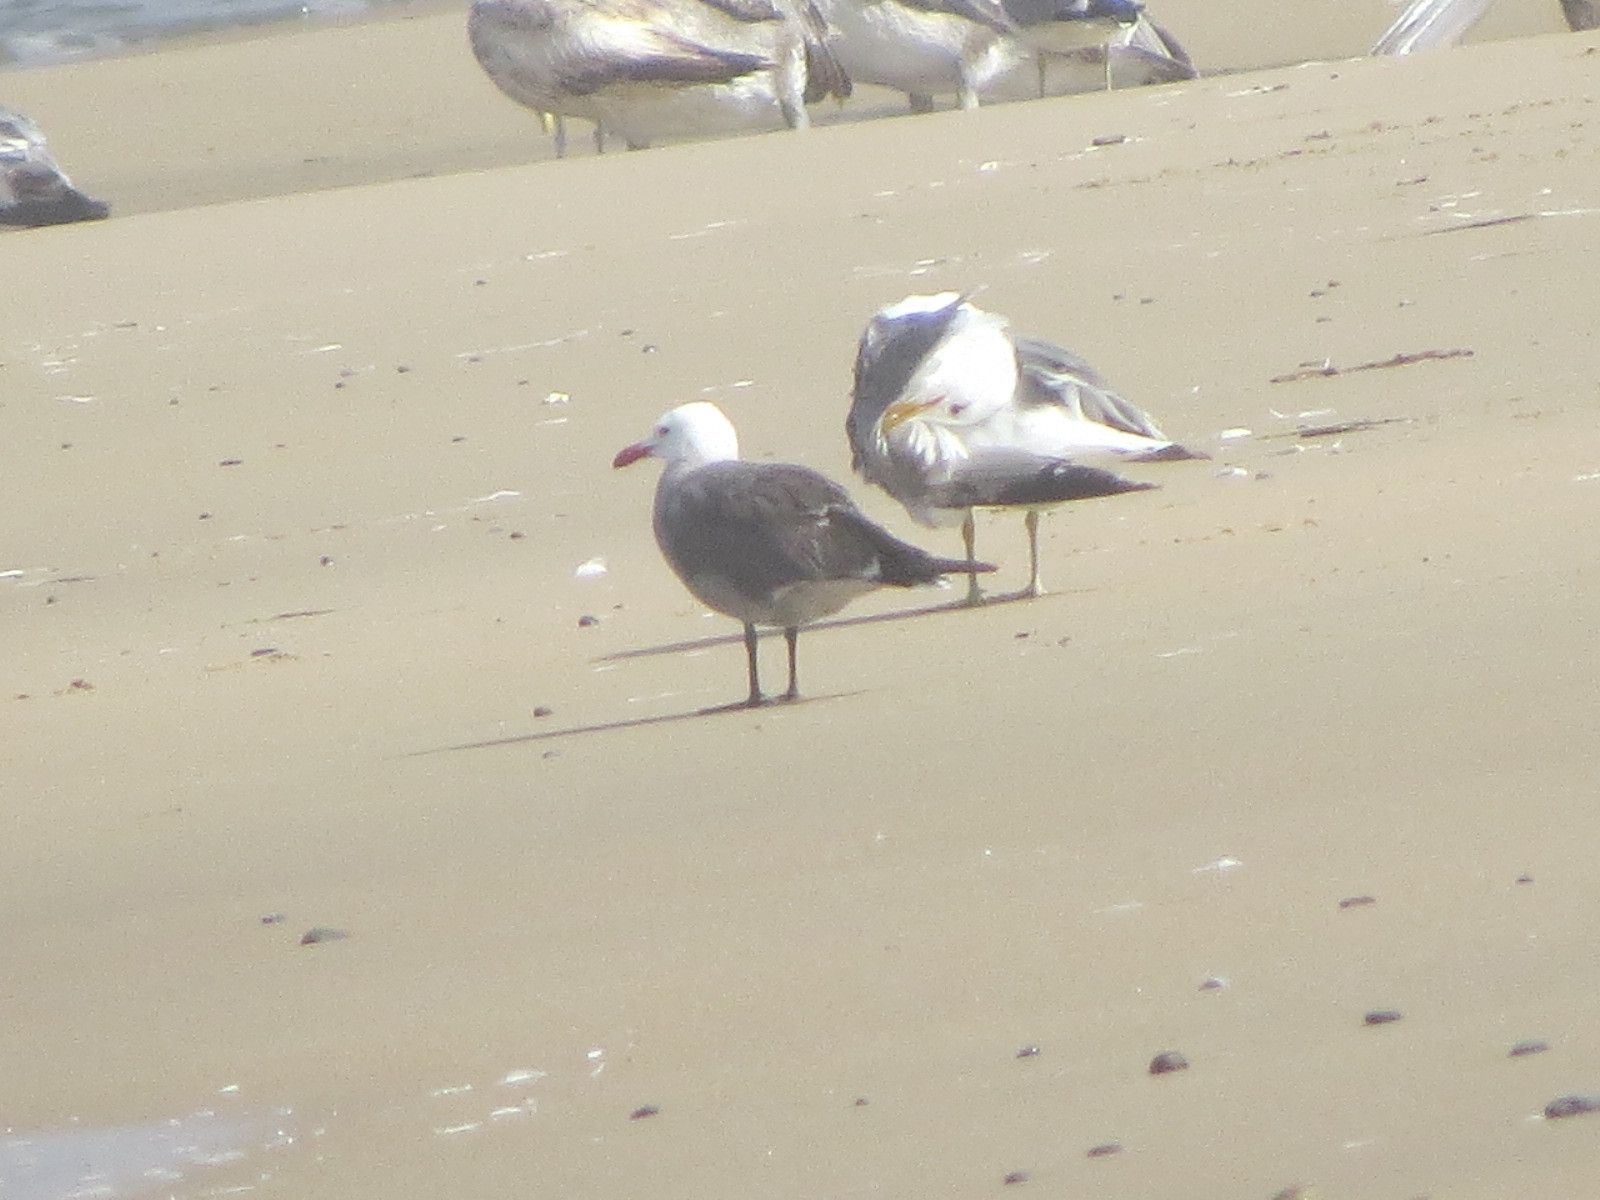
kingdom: Animalia
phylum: Chordata
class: Aves
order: Charadriiformes
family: Laridae
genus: Larus
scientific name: Larus heermanni
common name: Heermann's gull
